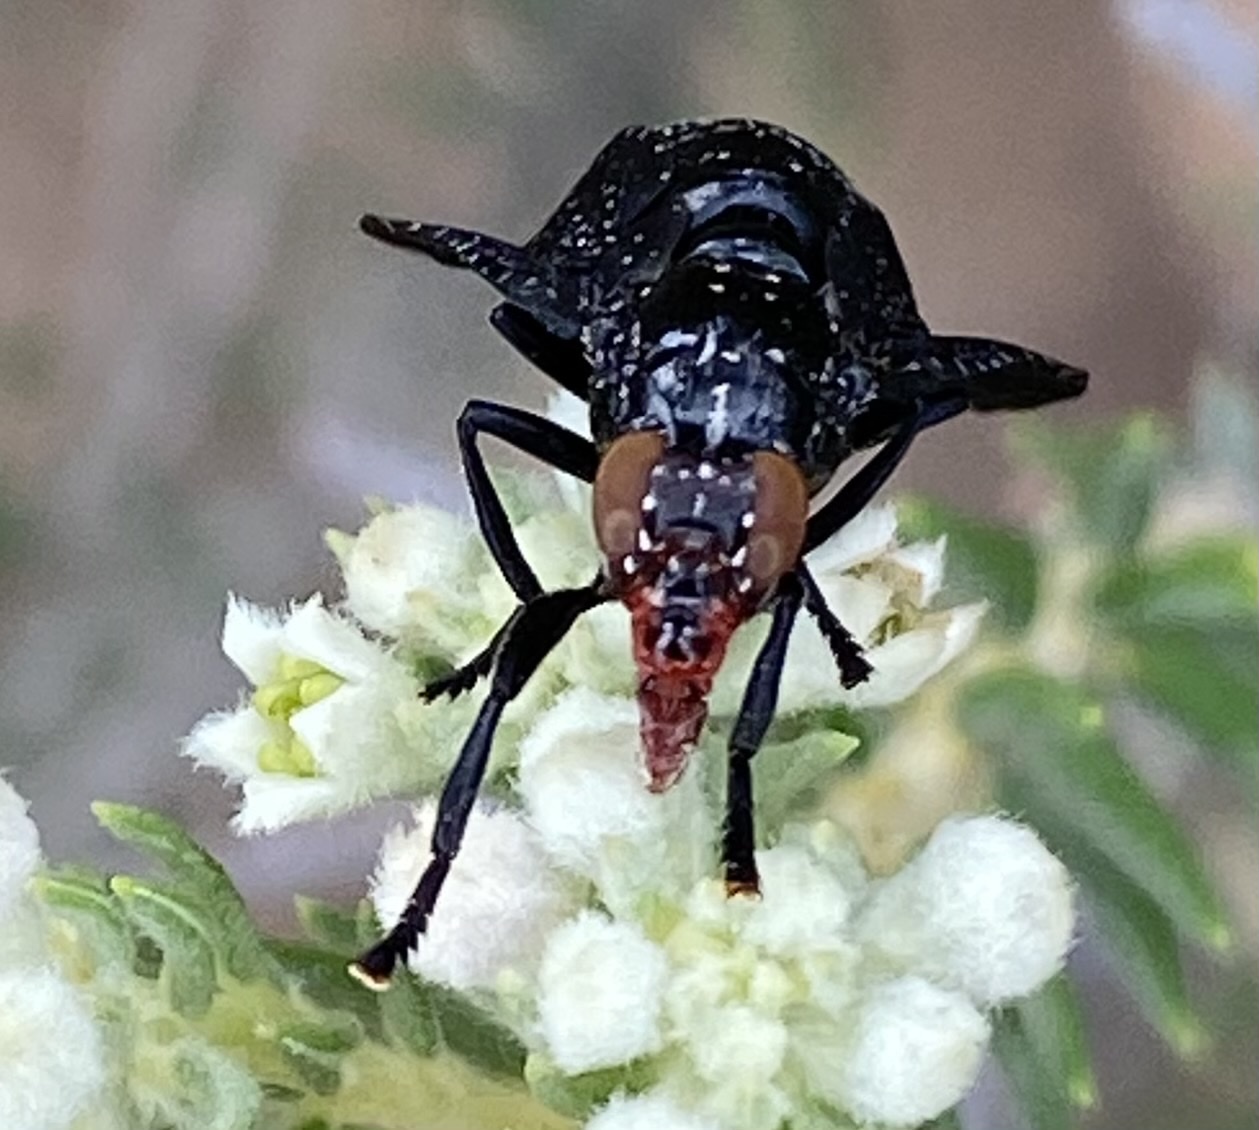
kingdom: Animalia
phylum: Arthropoda
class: Insecta
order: Diptera
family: Platystomatidae
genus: Palpomya
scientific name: Palpomya asphaltina
